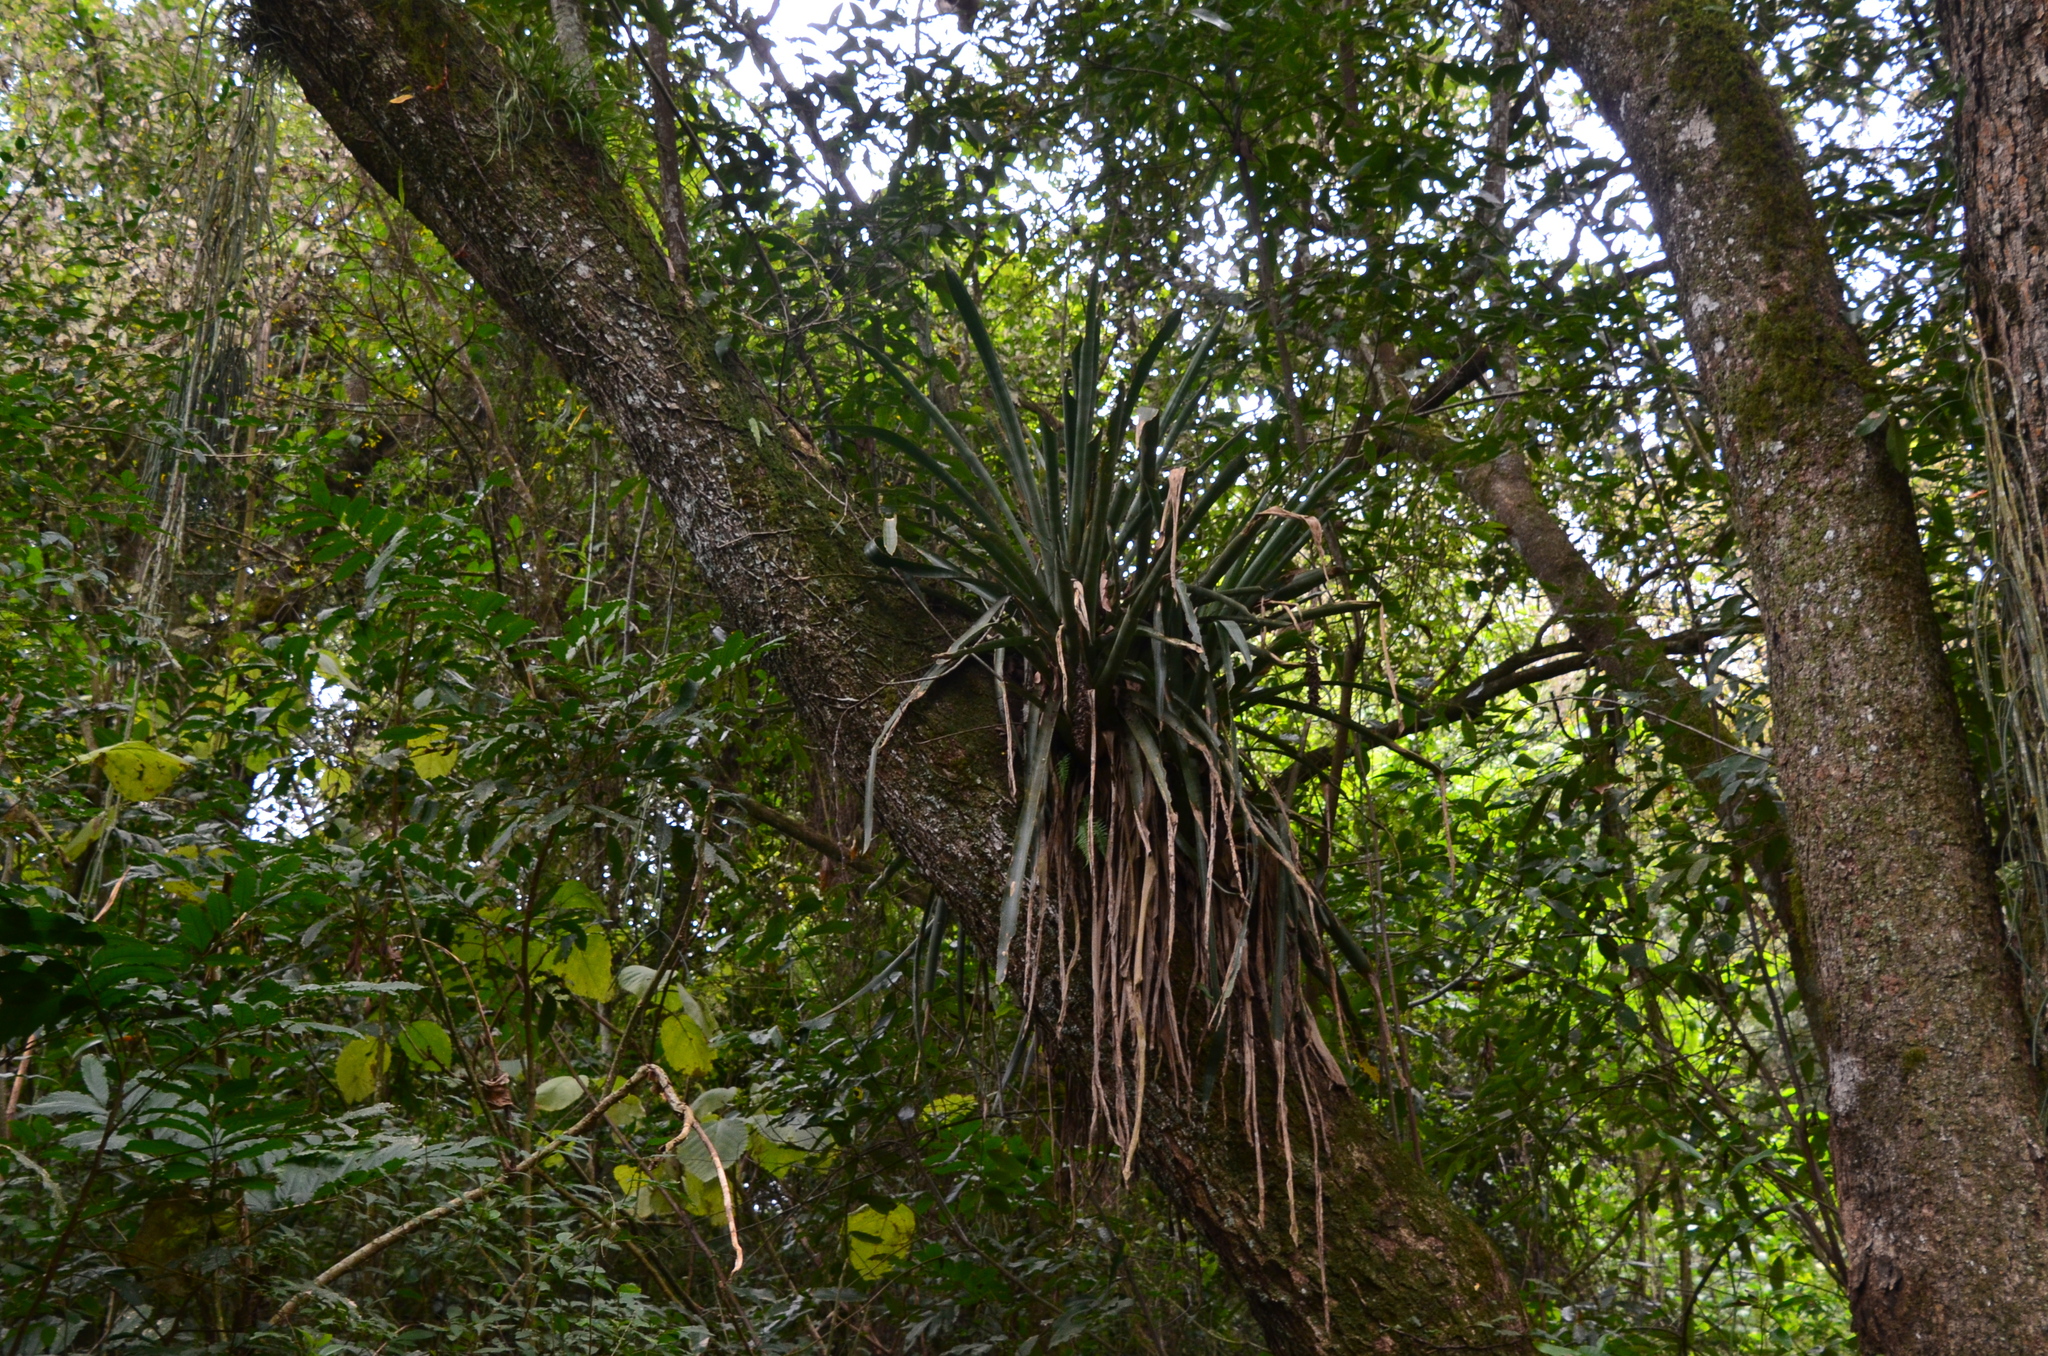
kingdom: Plantae
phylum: Tracheophyta
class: Liliopsida
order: Poales
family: Bromeliaceae
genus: Aechmea
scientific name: Aechmea distichantha
